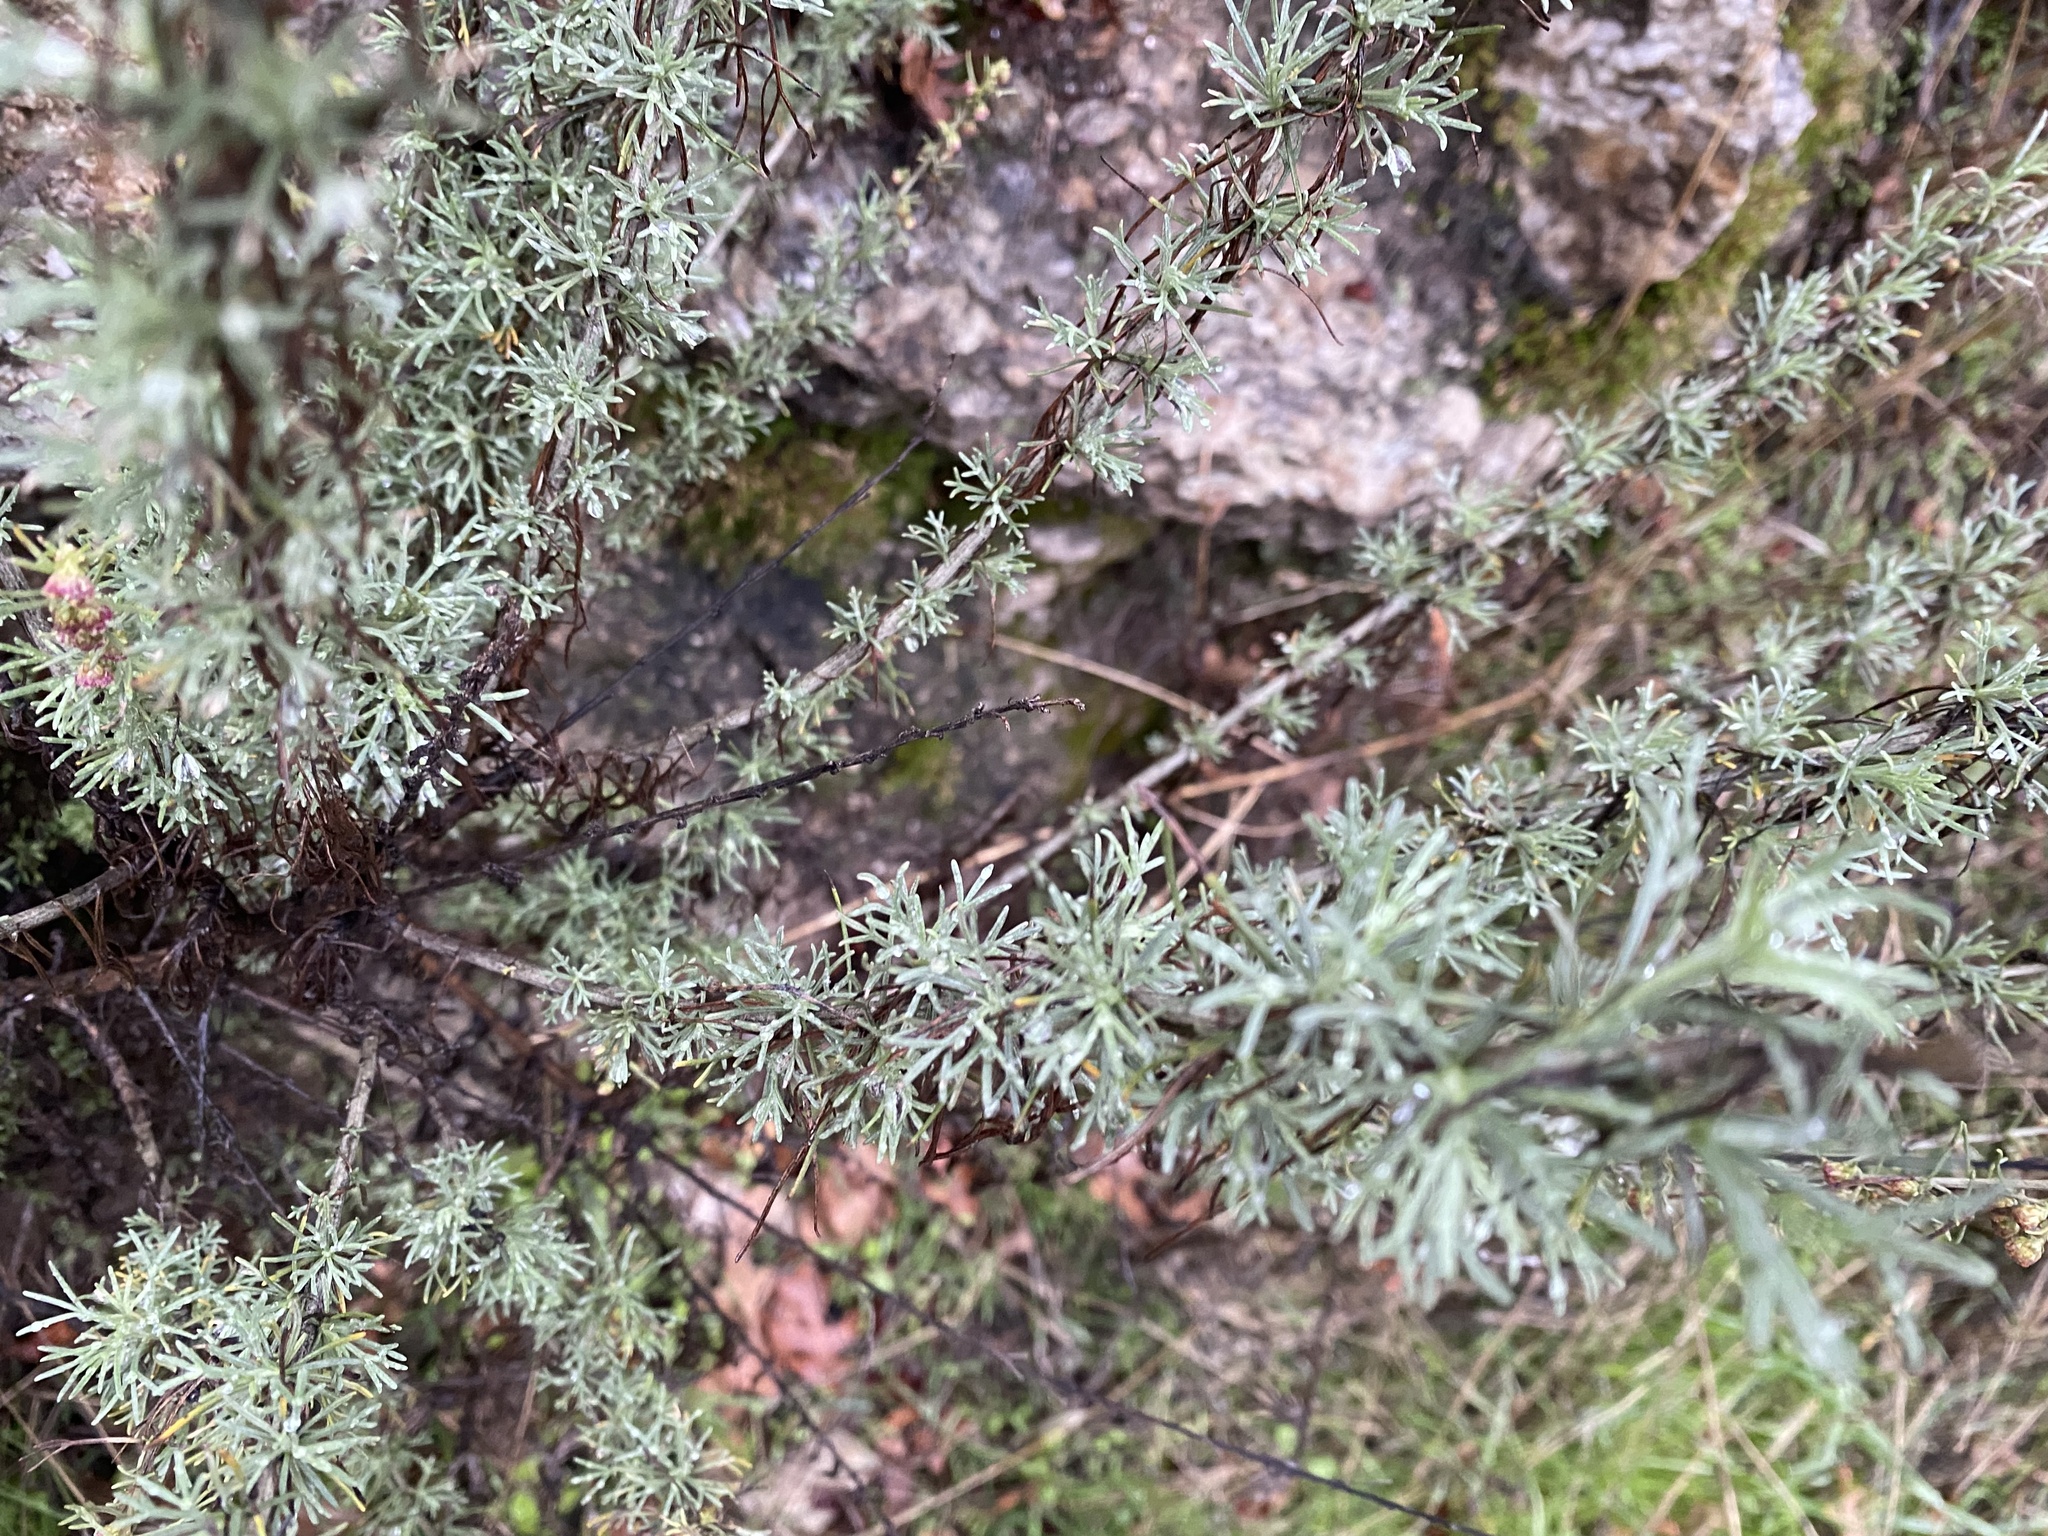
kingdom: Plantae
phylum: Tracheophyta
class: Magnoliopsida
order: Asterales
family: Asteraceae
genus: Artemisia
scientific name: Artemisia californica
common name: California sagebrush
